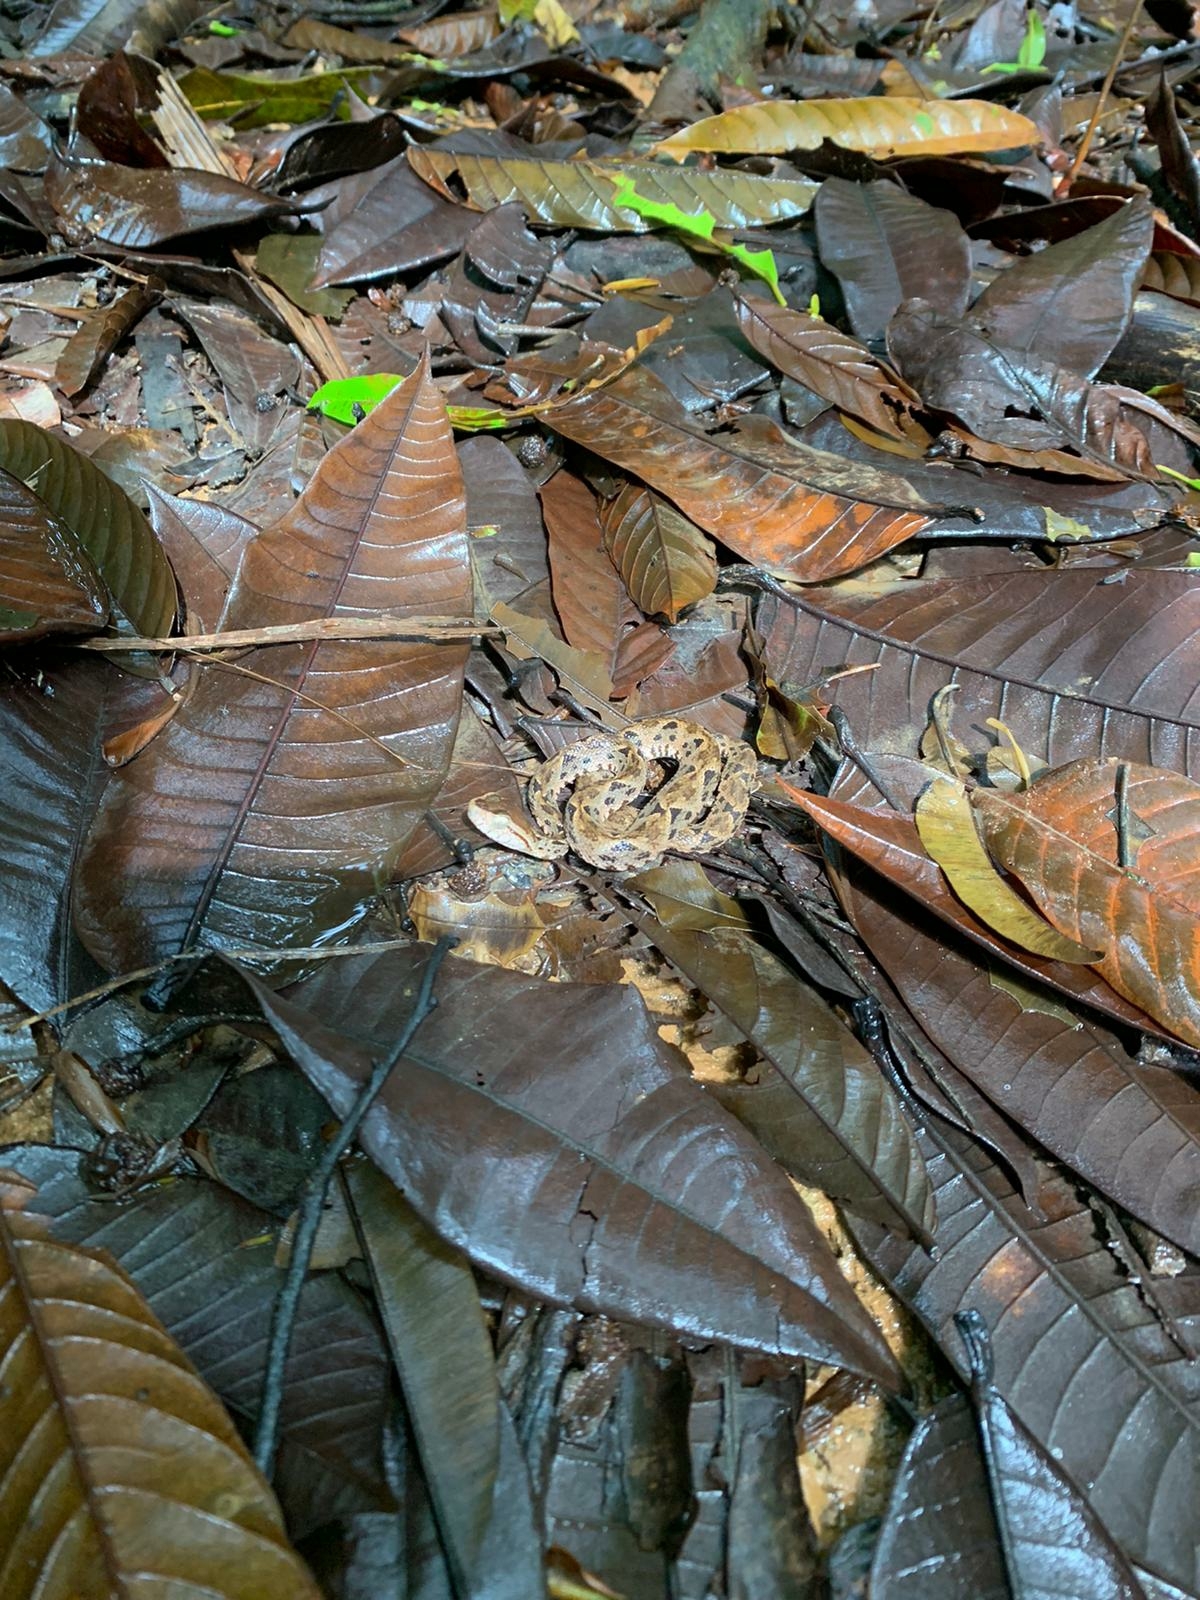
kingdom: Animalia
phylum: Chordata
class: Squamata
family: Viperidae
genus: Bothrops
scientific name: Bothrops asper
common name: Terciopelo
